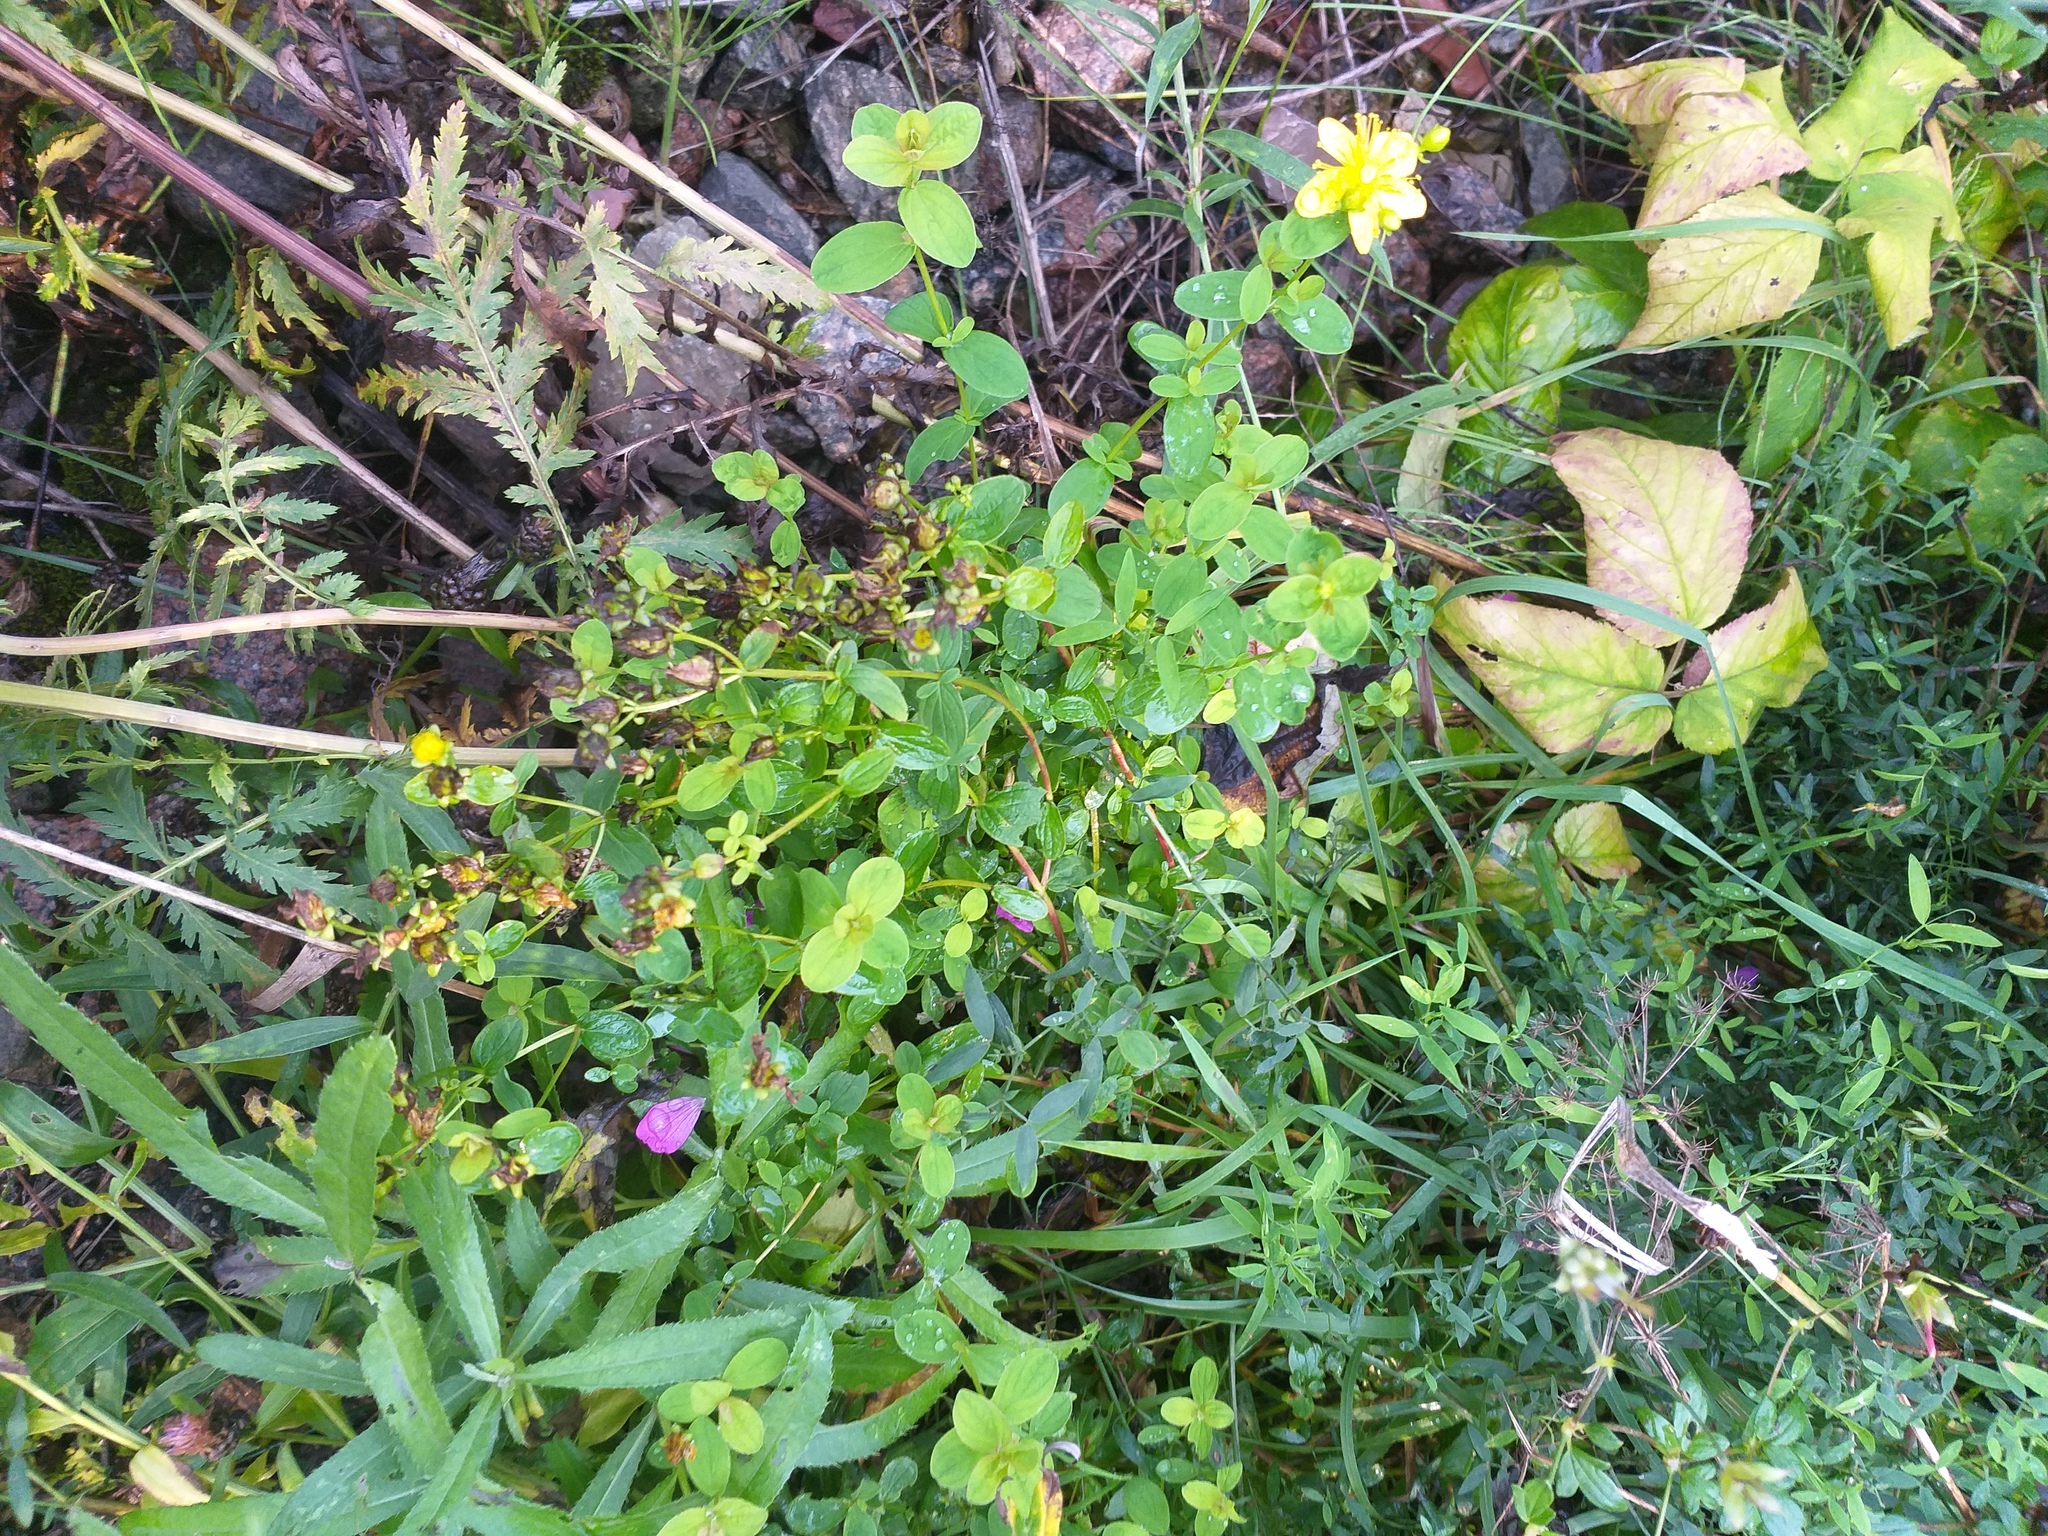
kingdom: Plantae
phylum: Tracheophyta
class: Magnoliopsida
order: Malpighiales
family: Hypericaceae
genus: Hypericum
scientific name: Hypericum maculatum
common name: Imperforate st. john's-wort
